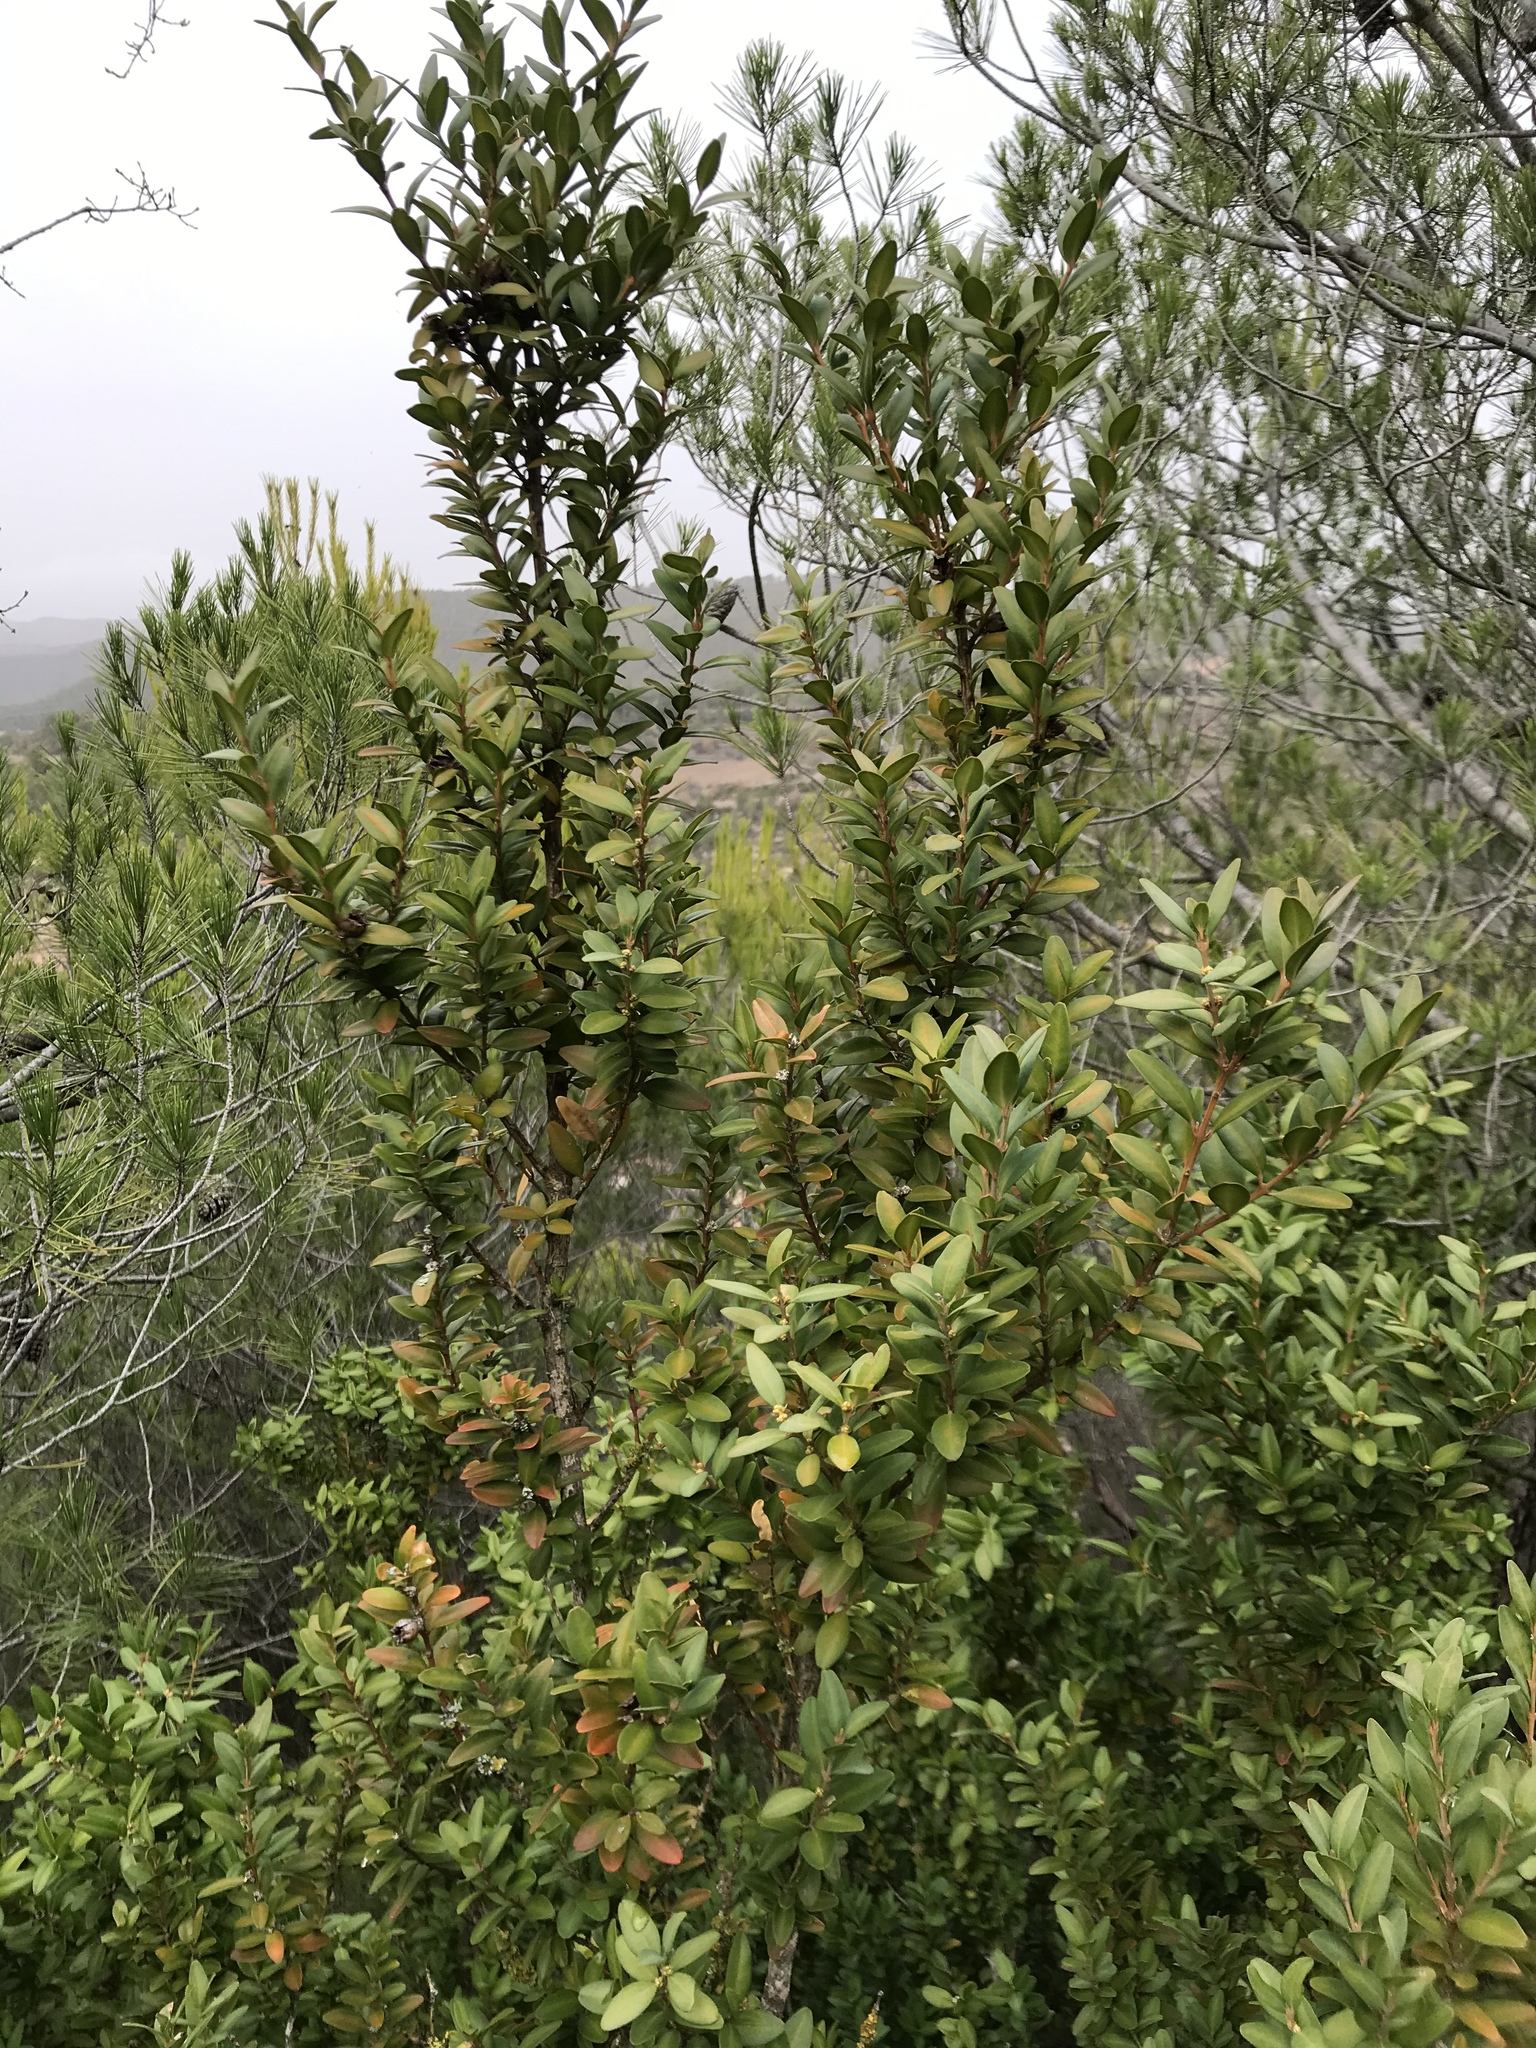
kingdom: Plantae
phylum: Tracheophyta
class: Magnoliopsida
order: Buxales
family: Buxaceae
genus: Buxus
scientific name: Buxus sempervirens
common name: Box
